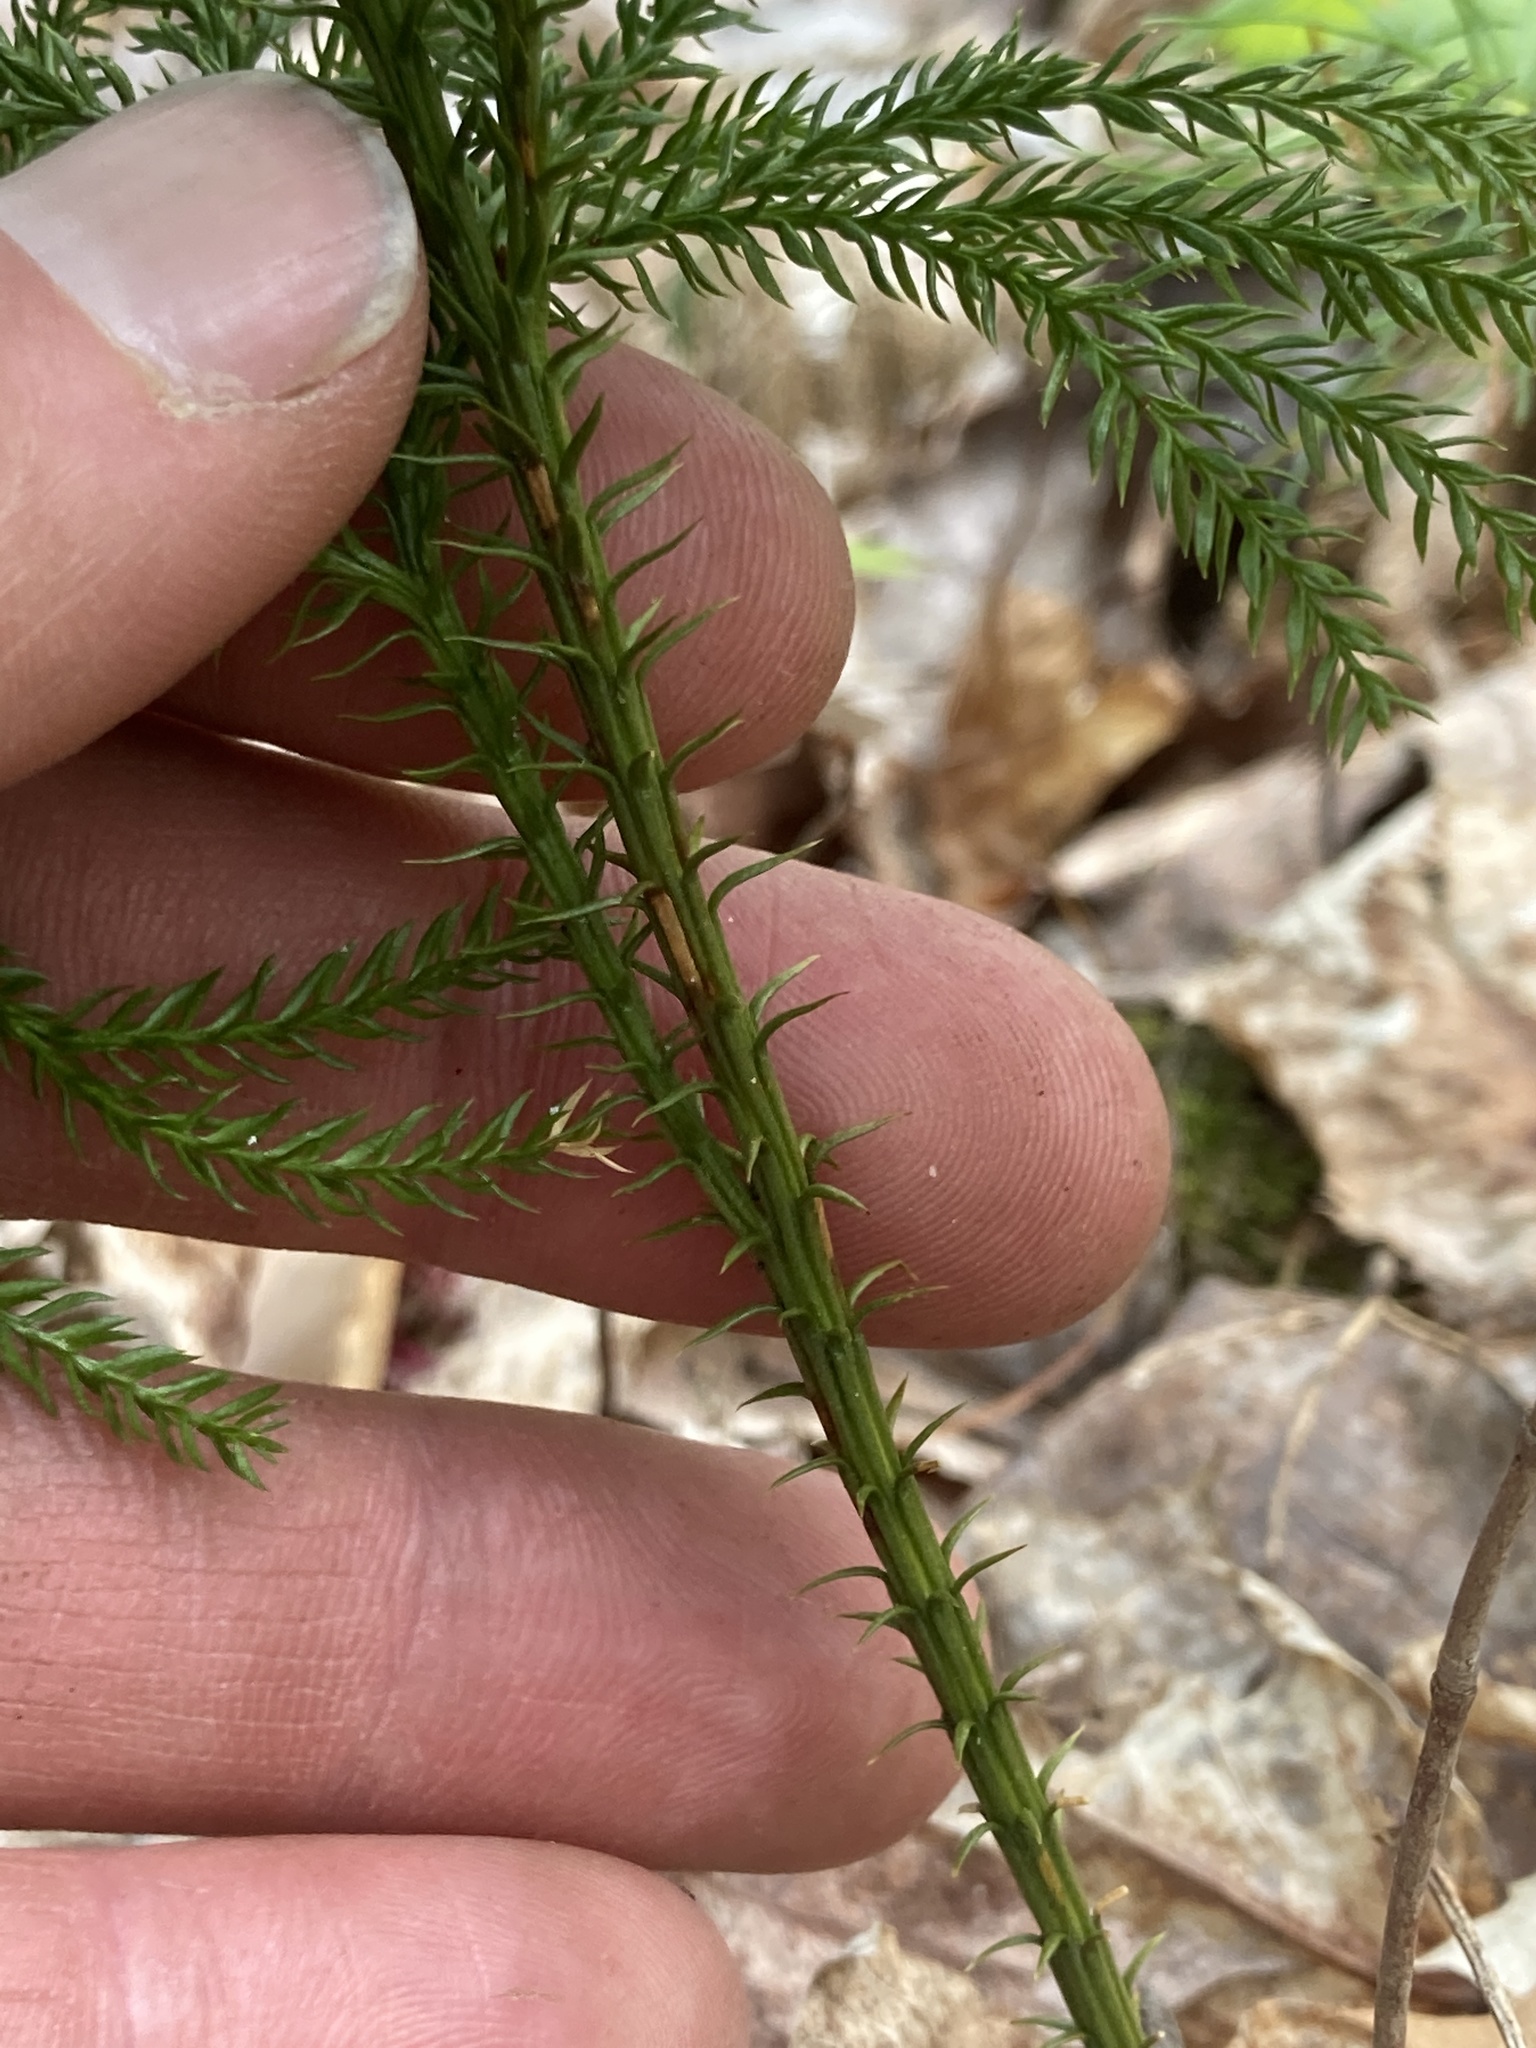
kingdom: Plantae
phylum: Tracheophyta
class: Lycopodiopsida
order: Lycopodiales
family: Lycopodiaceae
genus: Dendrolycopodium
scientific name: Dendrolycopodium dendroideum
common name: Northern tree-clubmoss
